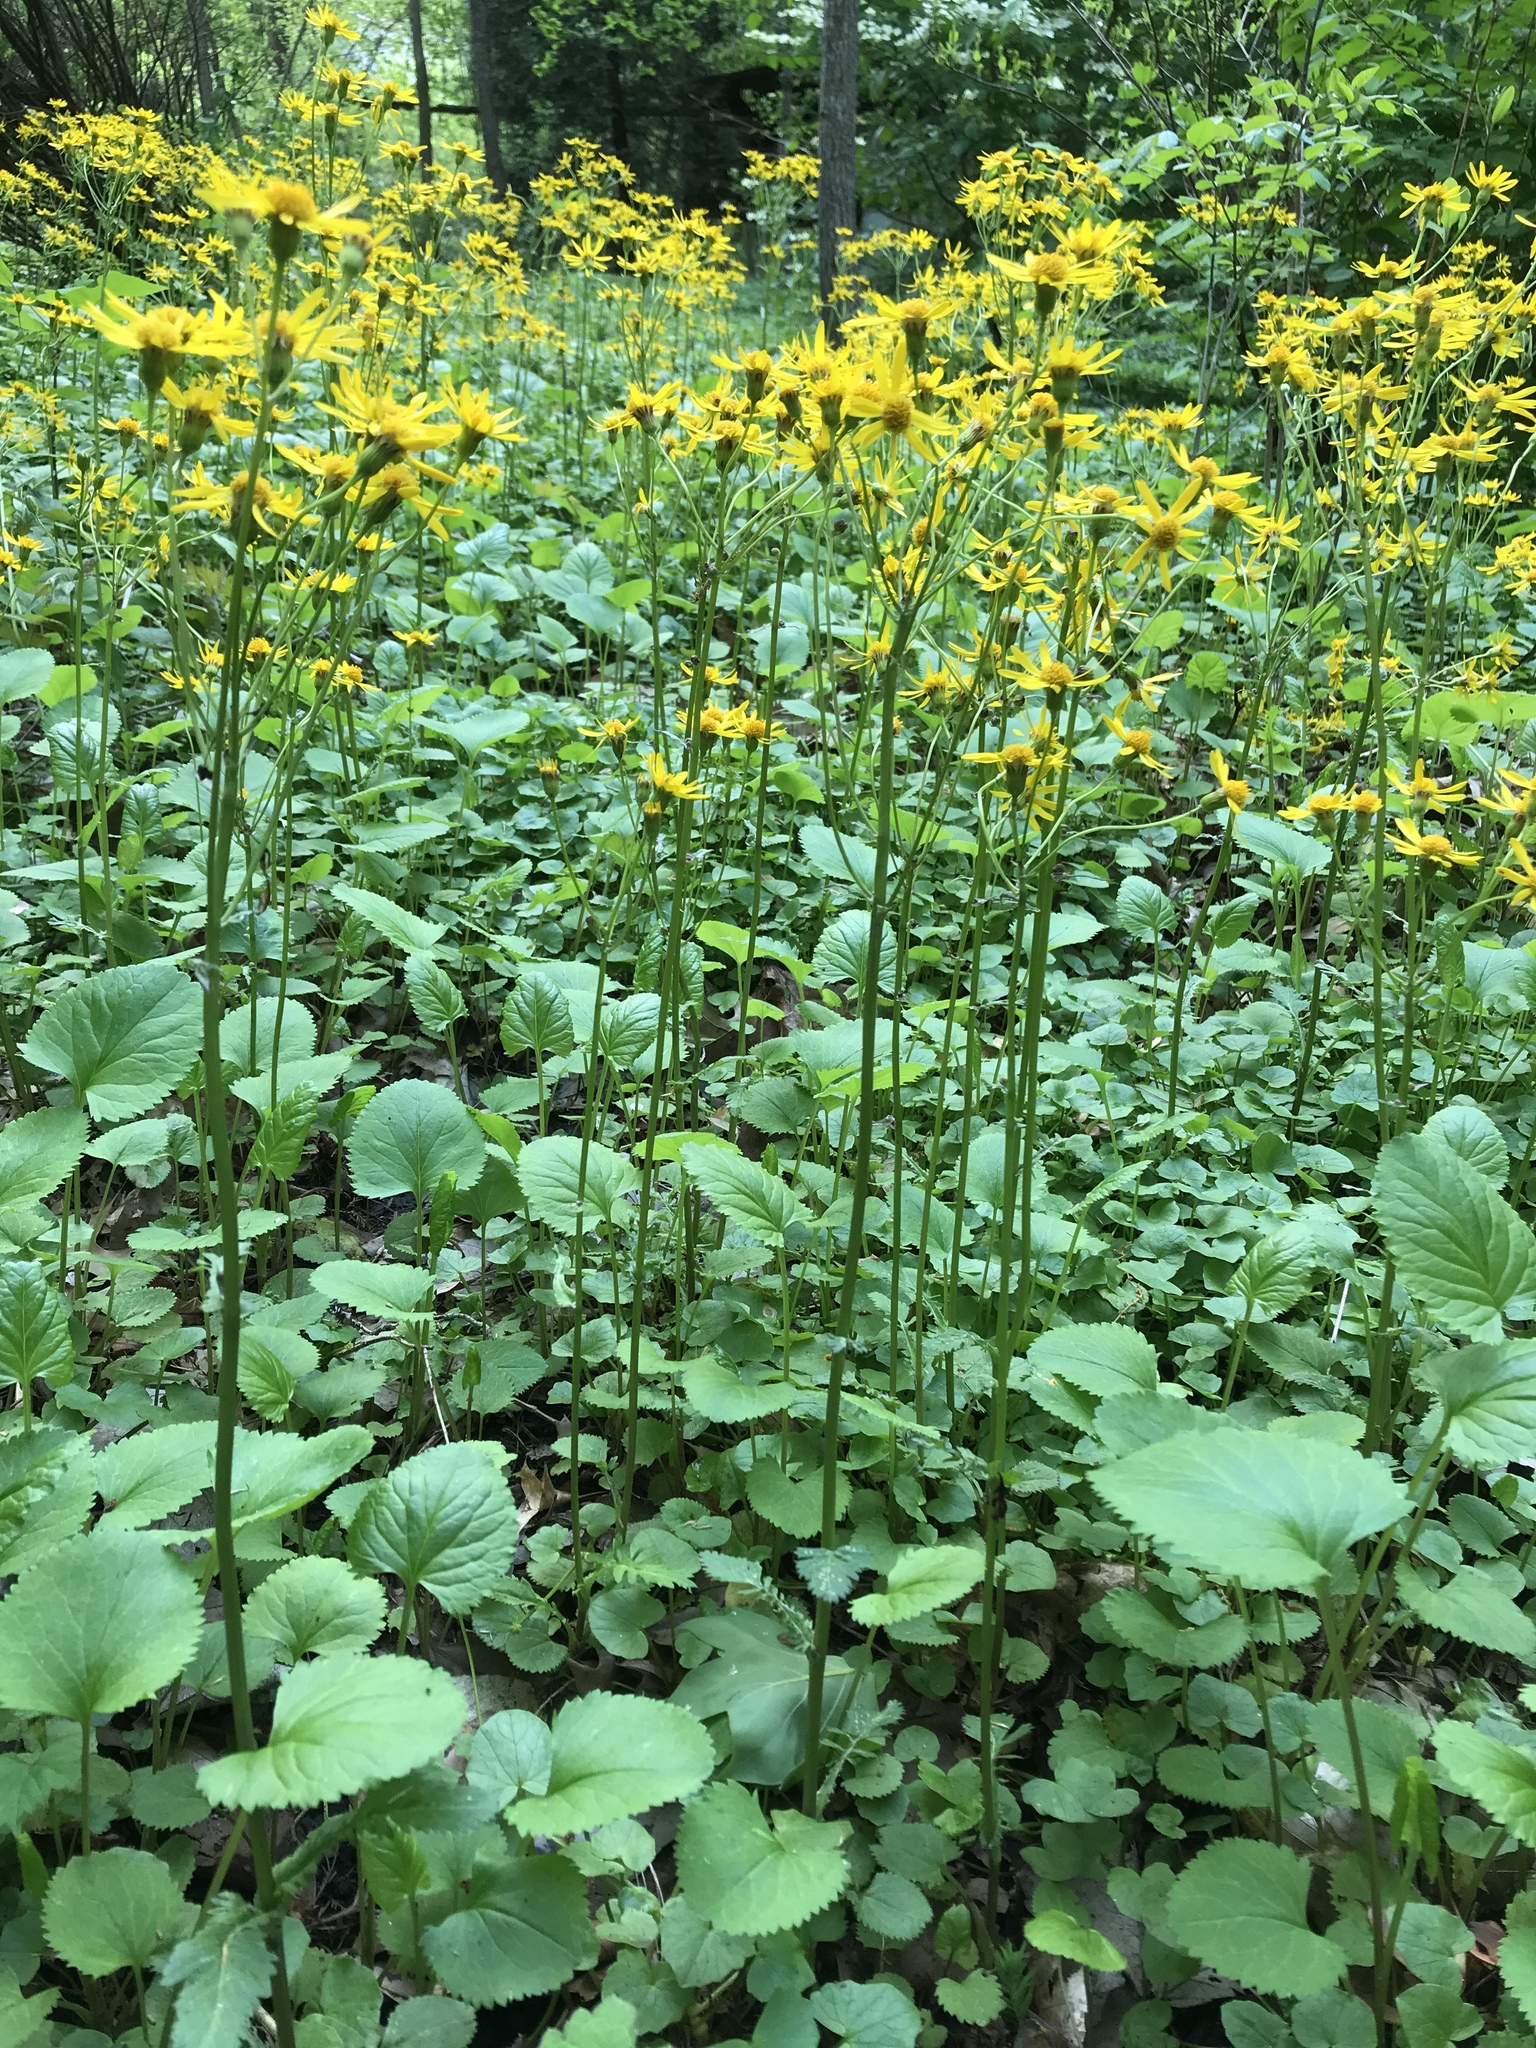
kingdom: Plantae
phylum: Tracheophyta
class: Magnoliopsida
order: Asterales
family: Asteraceae
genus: Packera
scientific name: Packera aurea
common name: Golden groundsel
